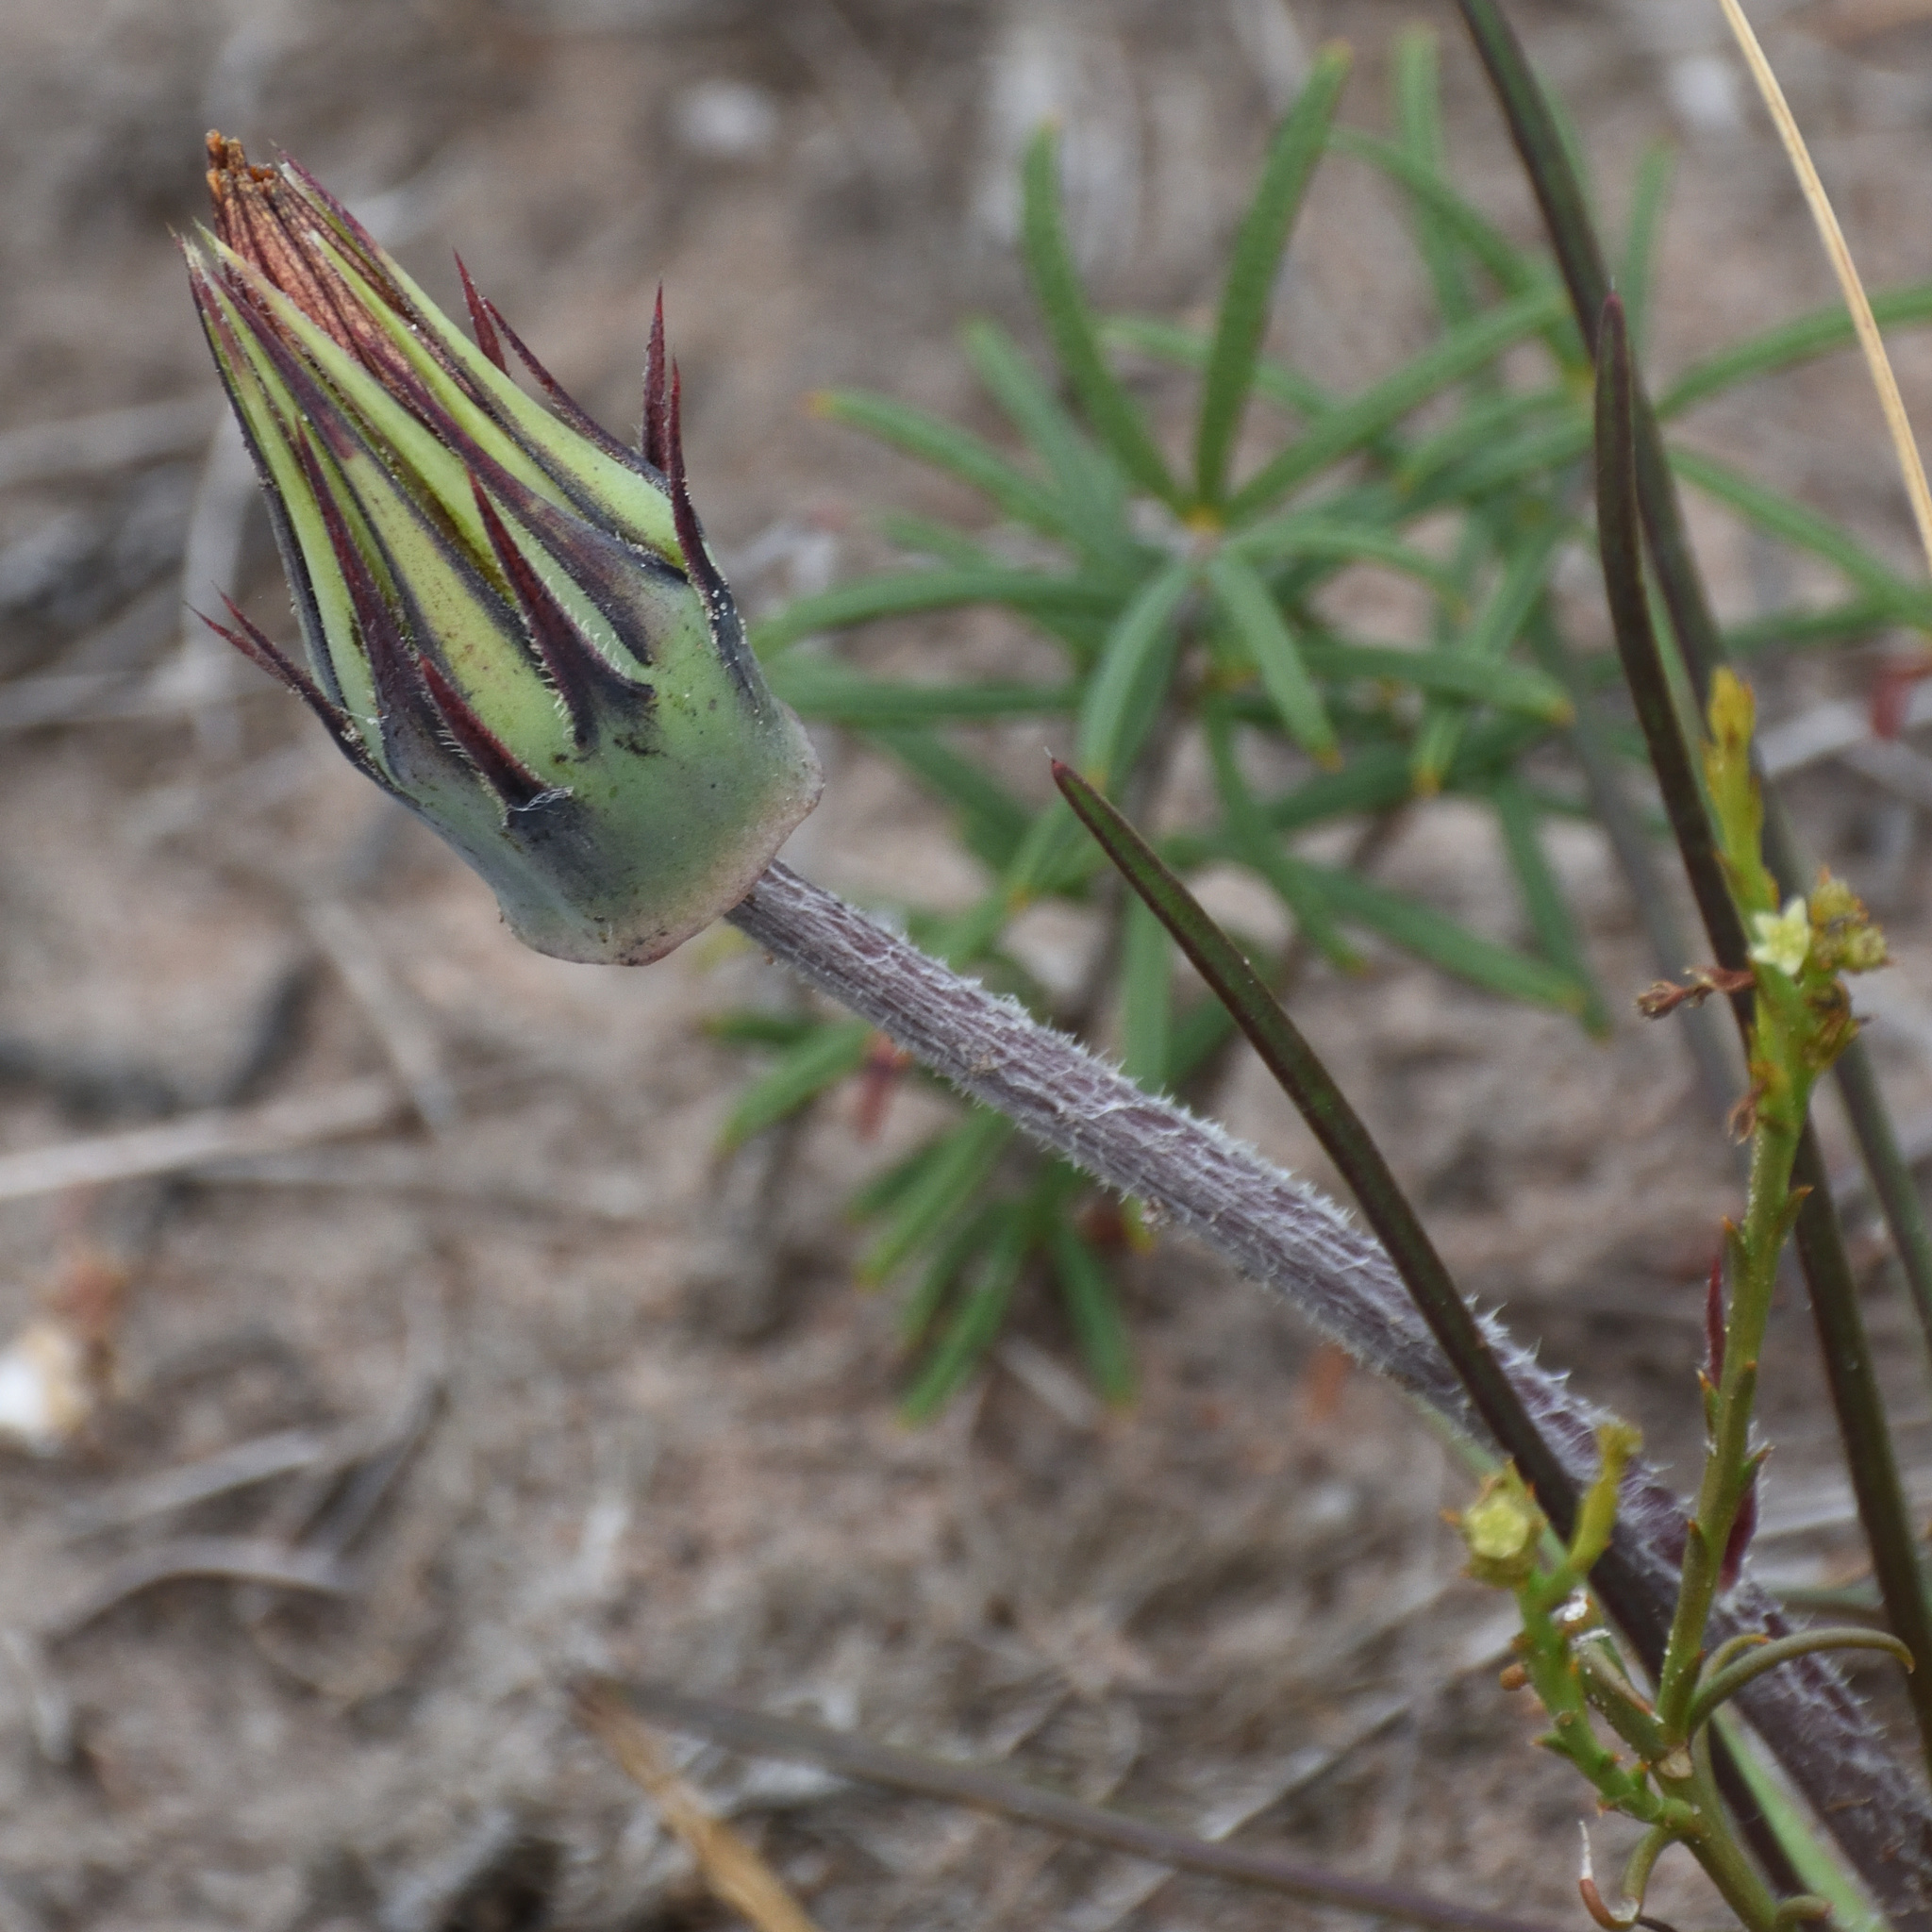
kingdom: Plantae
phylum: Tracheophyta
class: Magnoliopsida
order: Asterales
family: Asteraceae
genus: Gazania
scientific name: Gazania ciliaris
